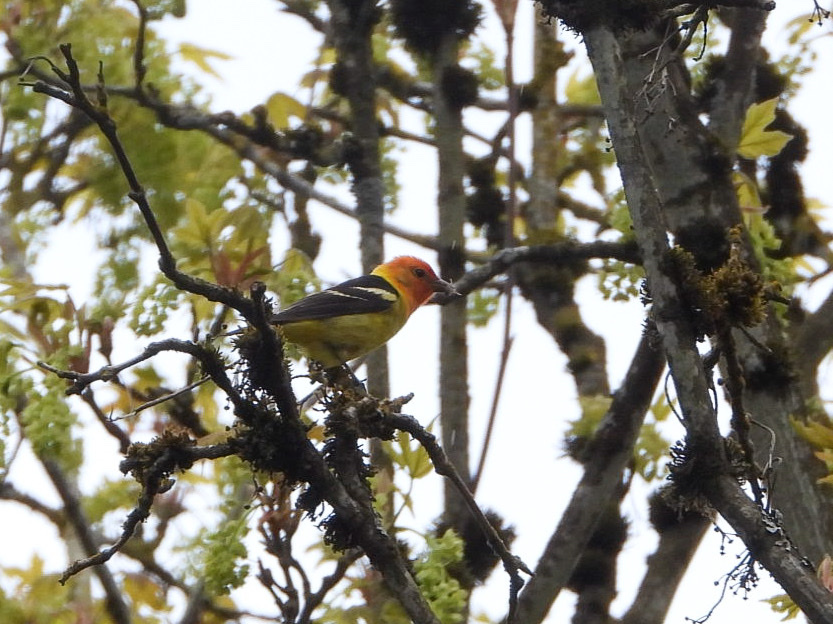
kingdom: Animalia
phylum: Chordata
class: Aves
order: Passeriformes
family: Cardinalidae
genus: Piranga
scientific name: Piranga ludoviciana
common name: Western tanager
